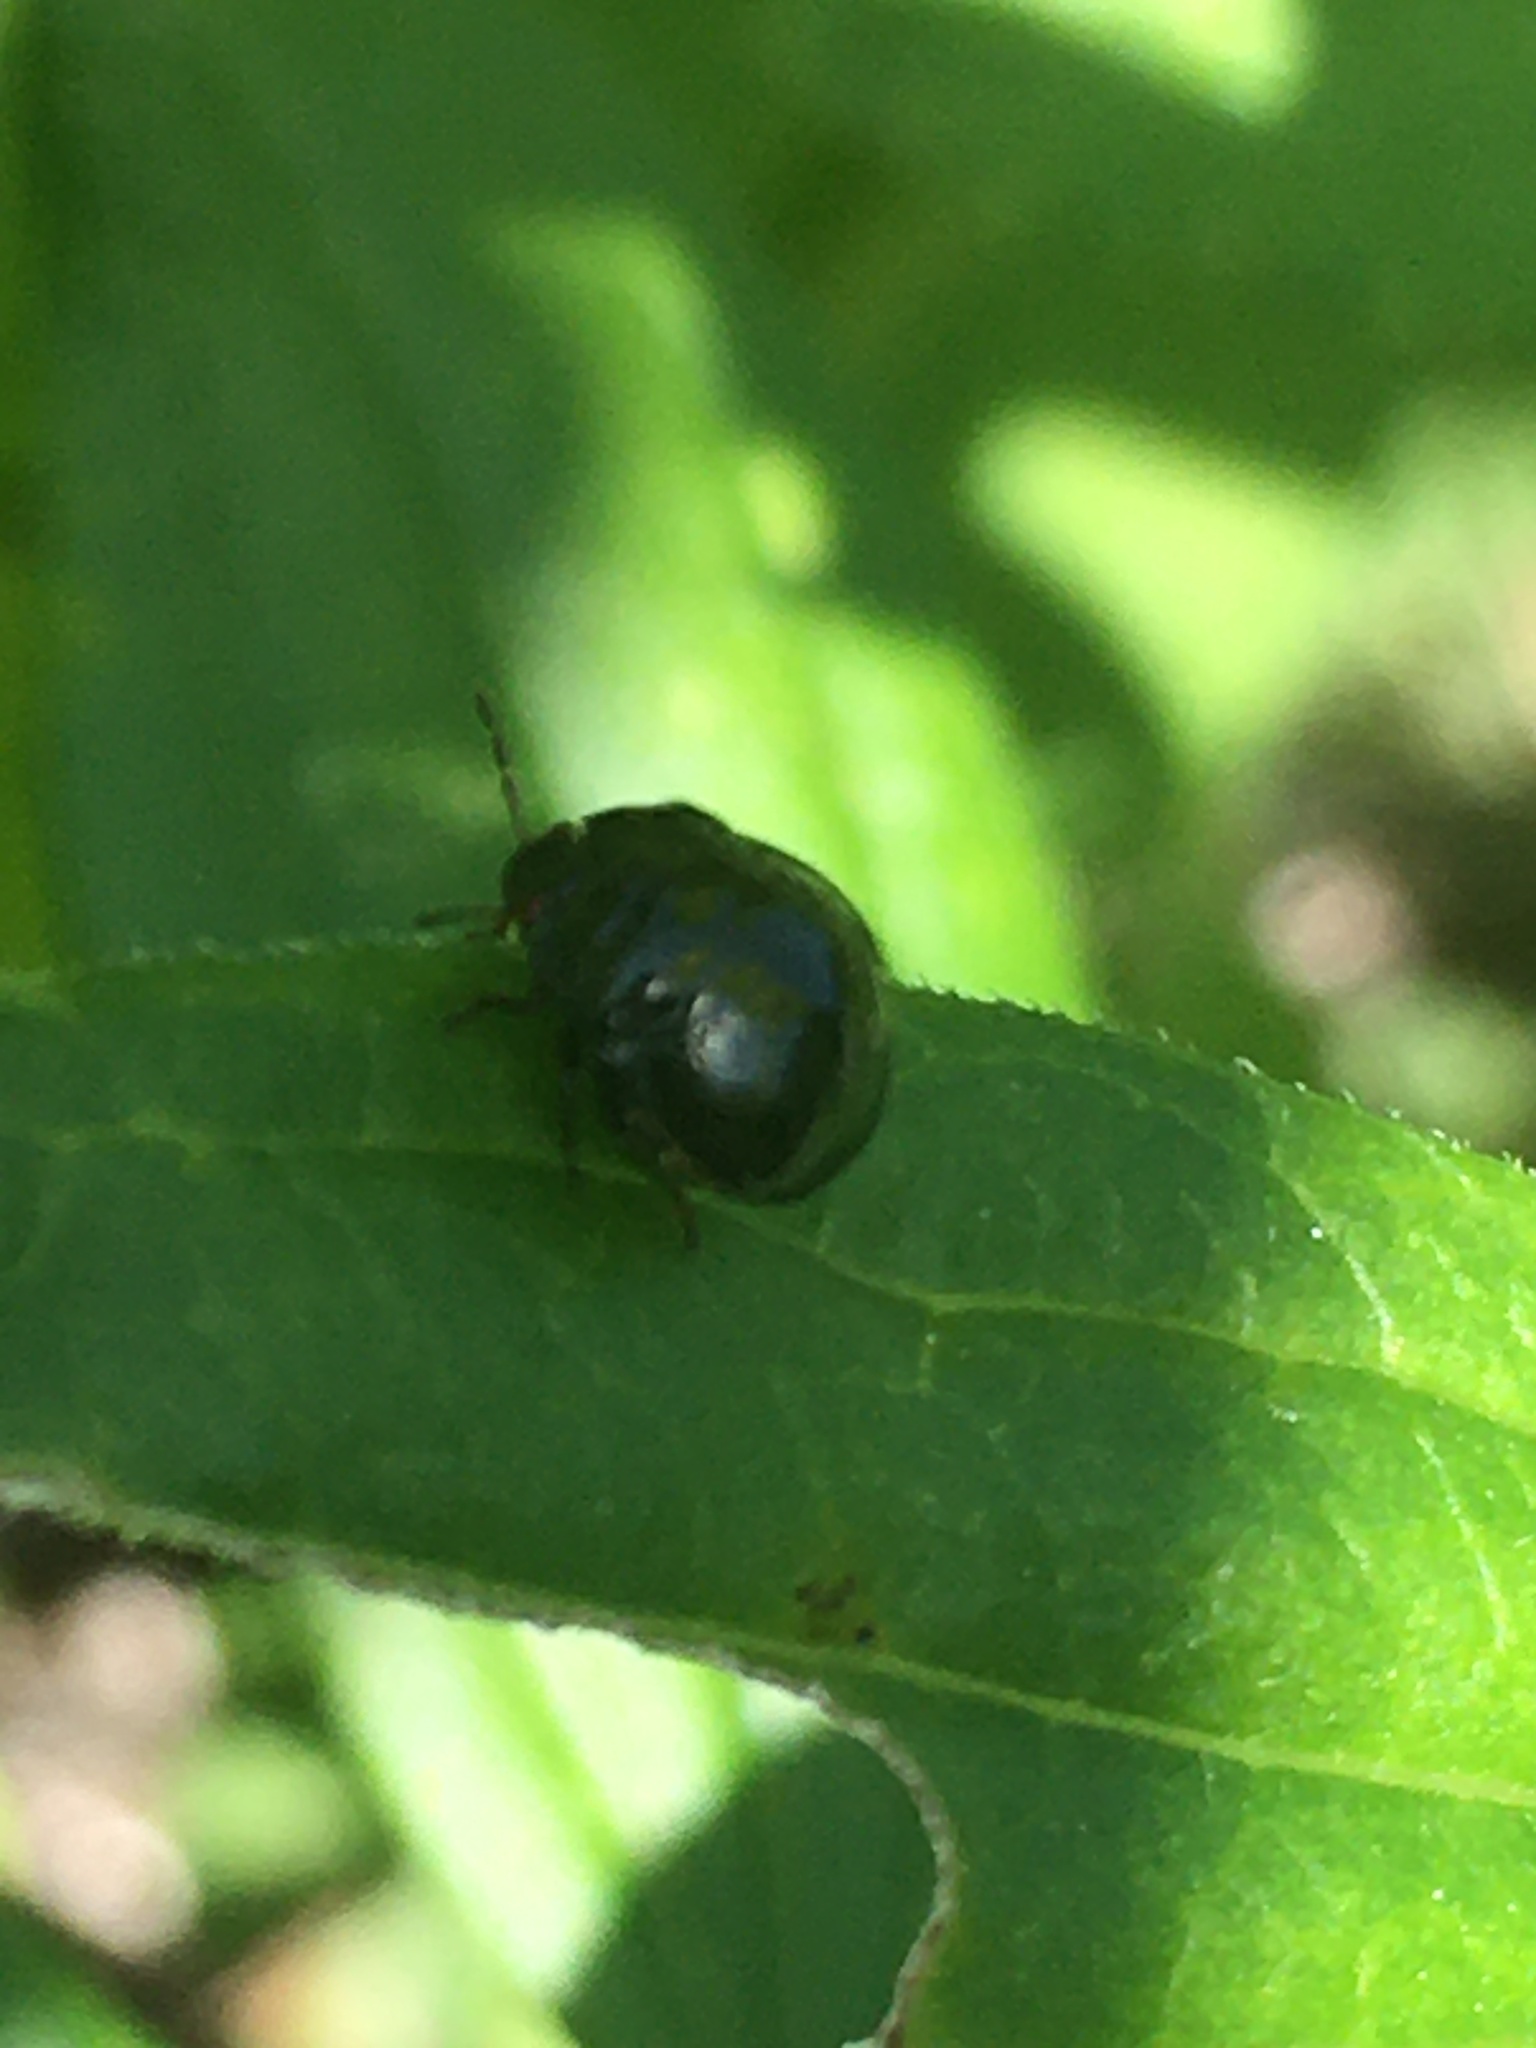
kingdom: Animalia
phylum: Arthropoda
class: Insecta
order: Hemiptera
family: Plataspidae
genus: Coptosoma
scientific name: Coptosoma scutellatum
